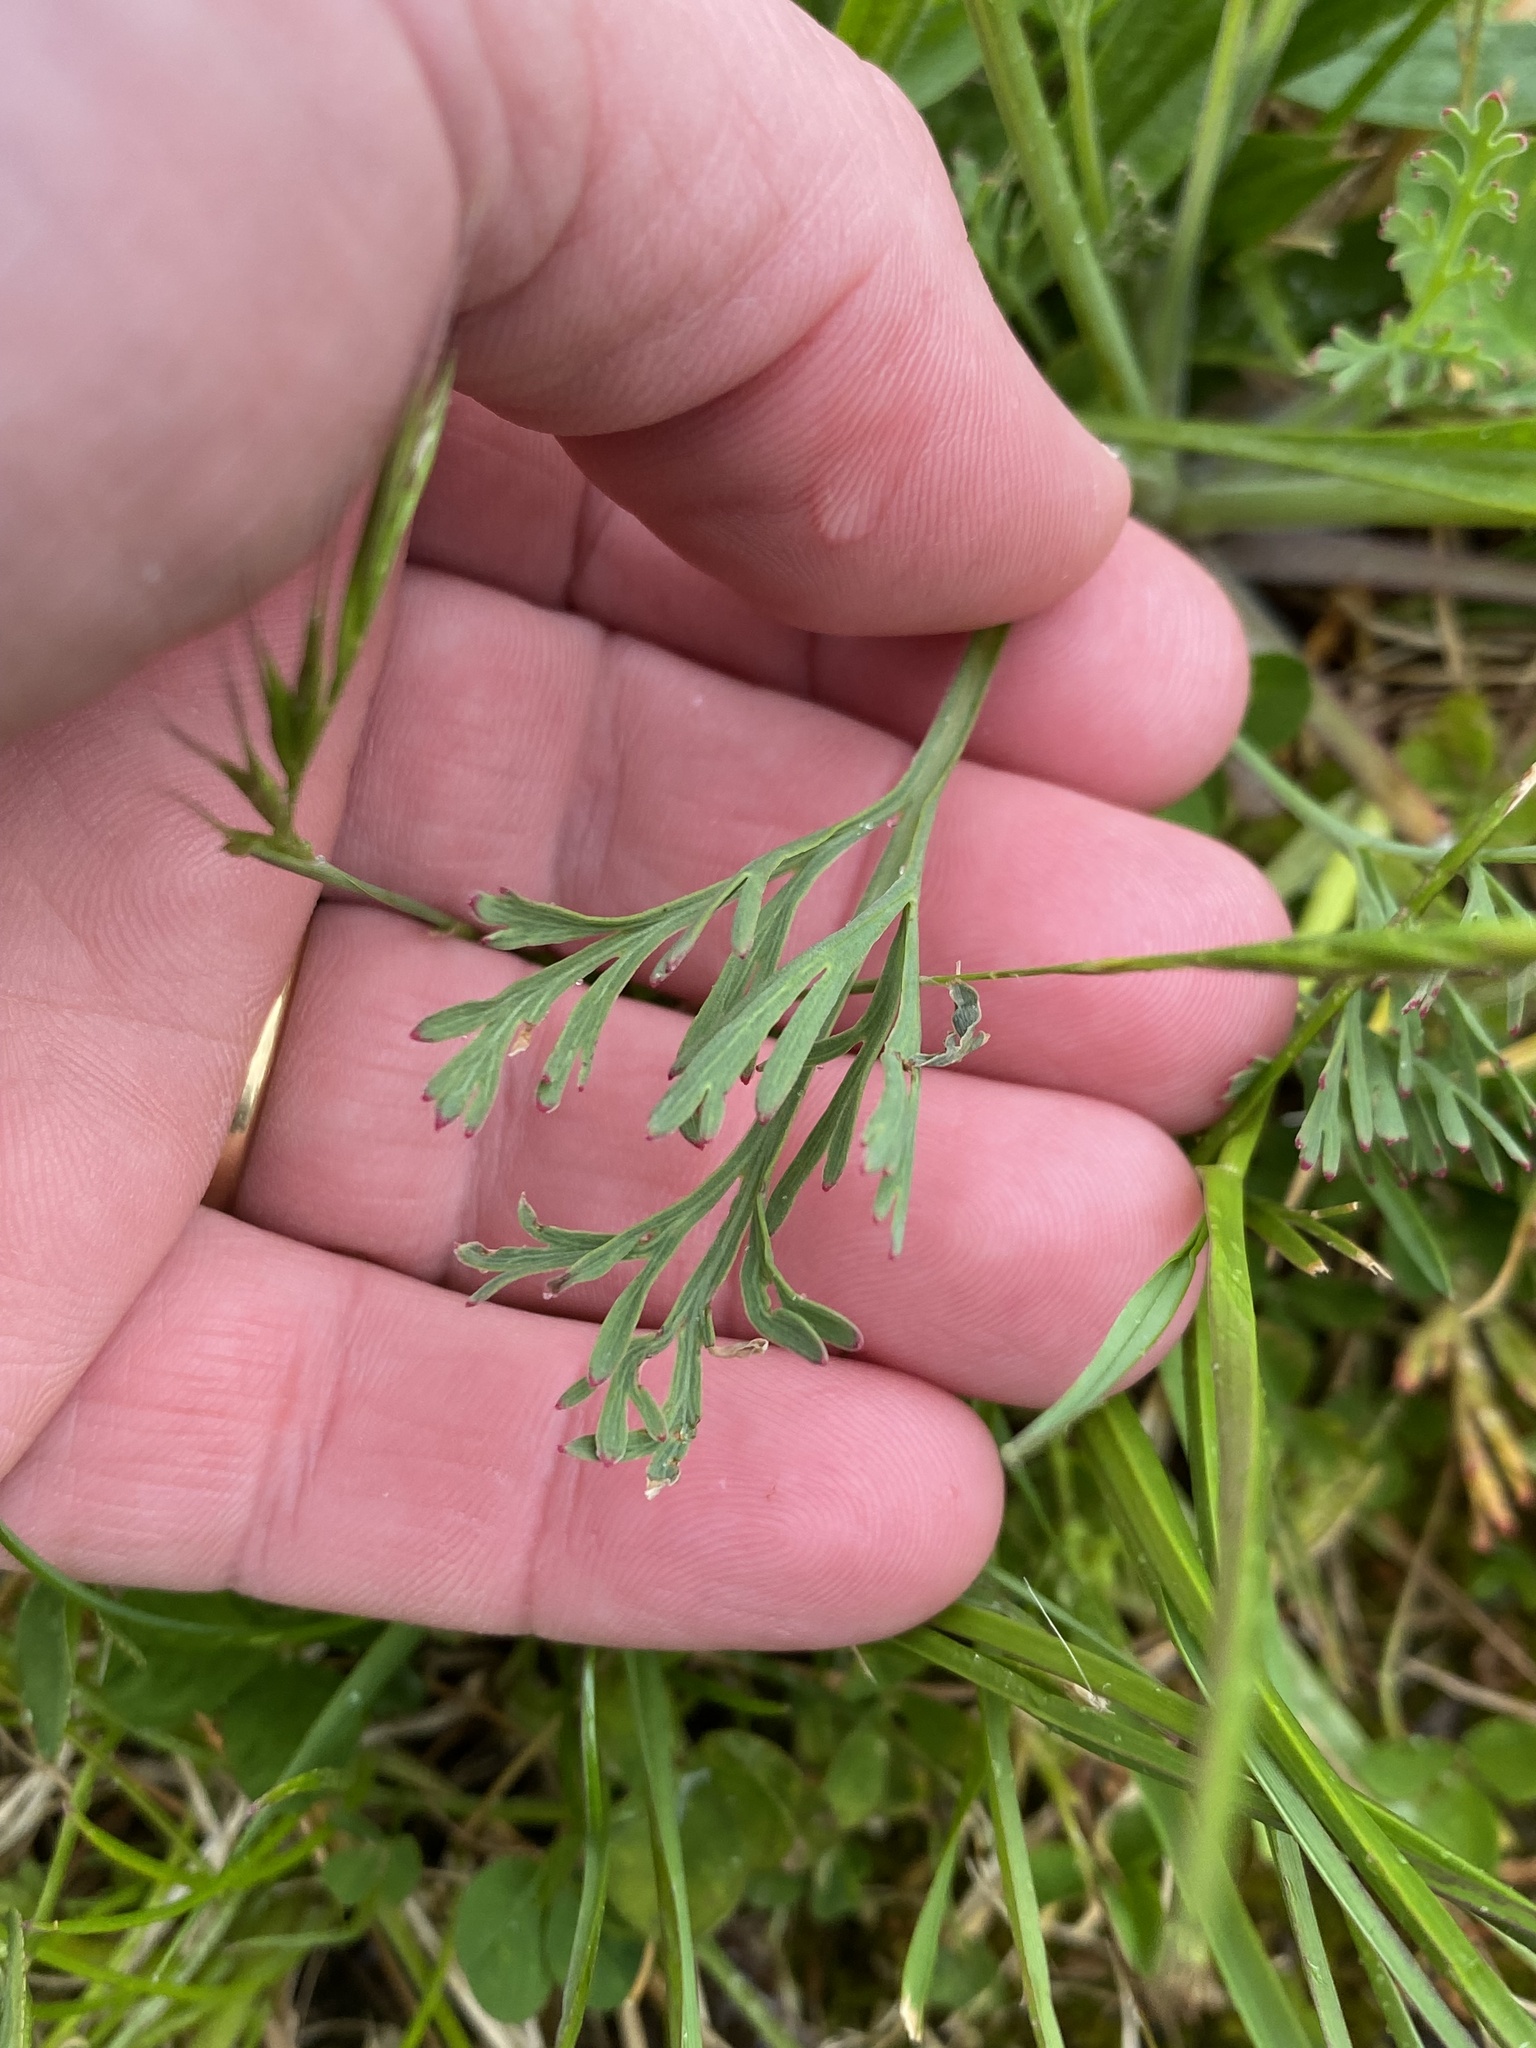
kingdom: Plantae
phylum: Tracheophyta
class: Magnoliopsida
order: Ranunculales
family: Papaveraceae
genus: Eschscholzia
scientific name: Eschscholzia californica
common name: California poppy
